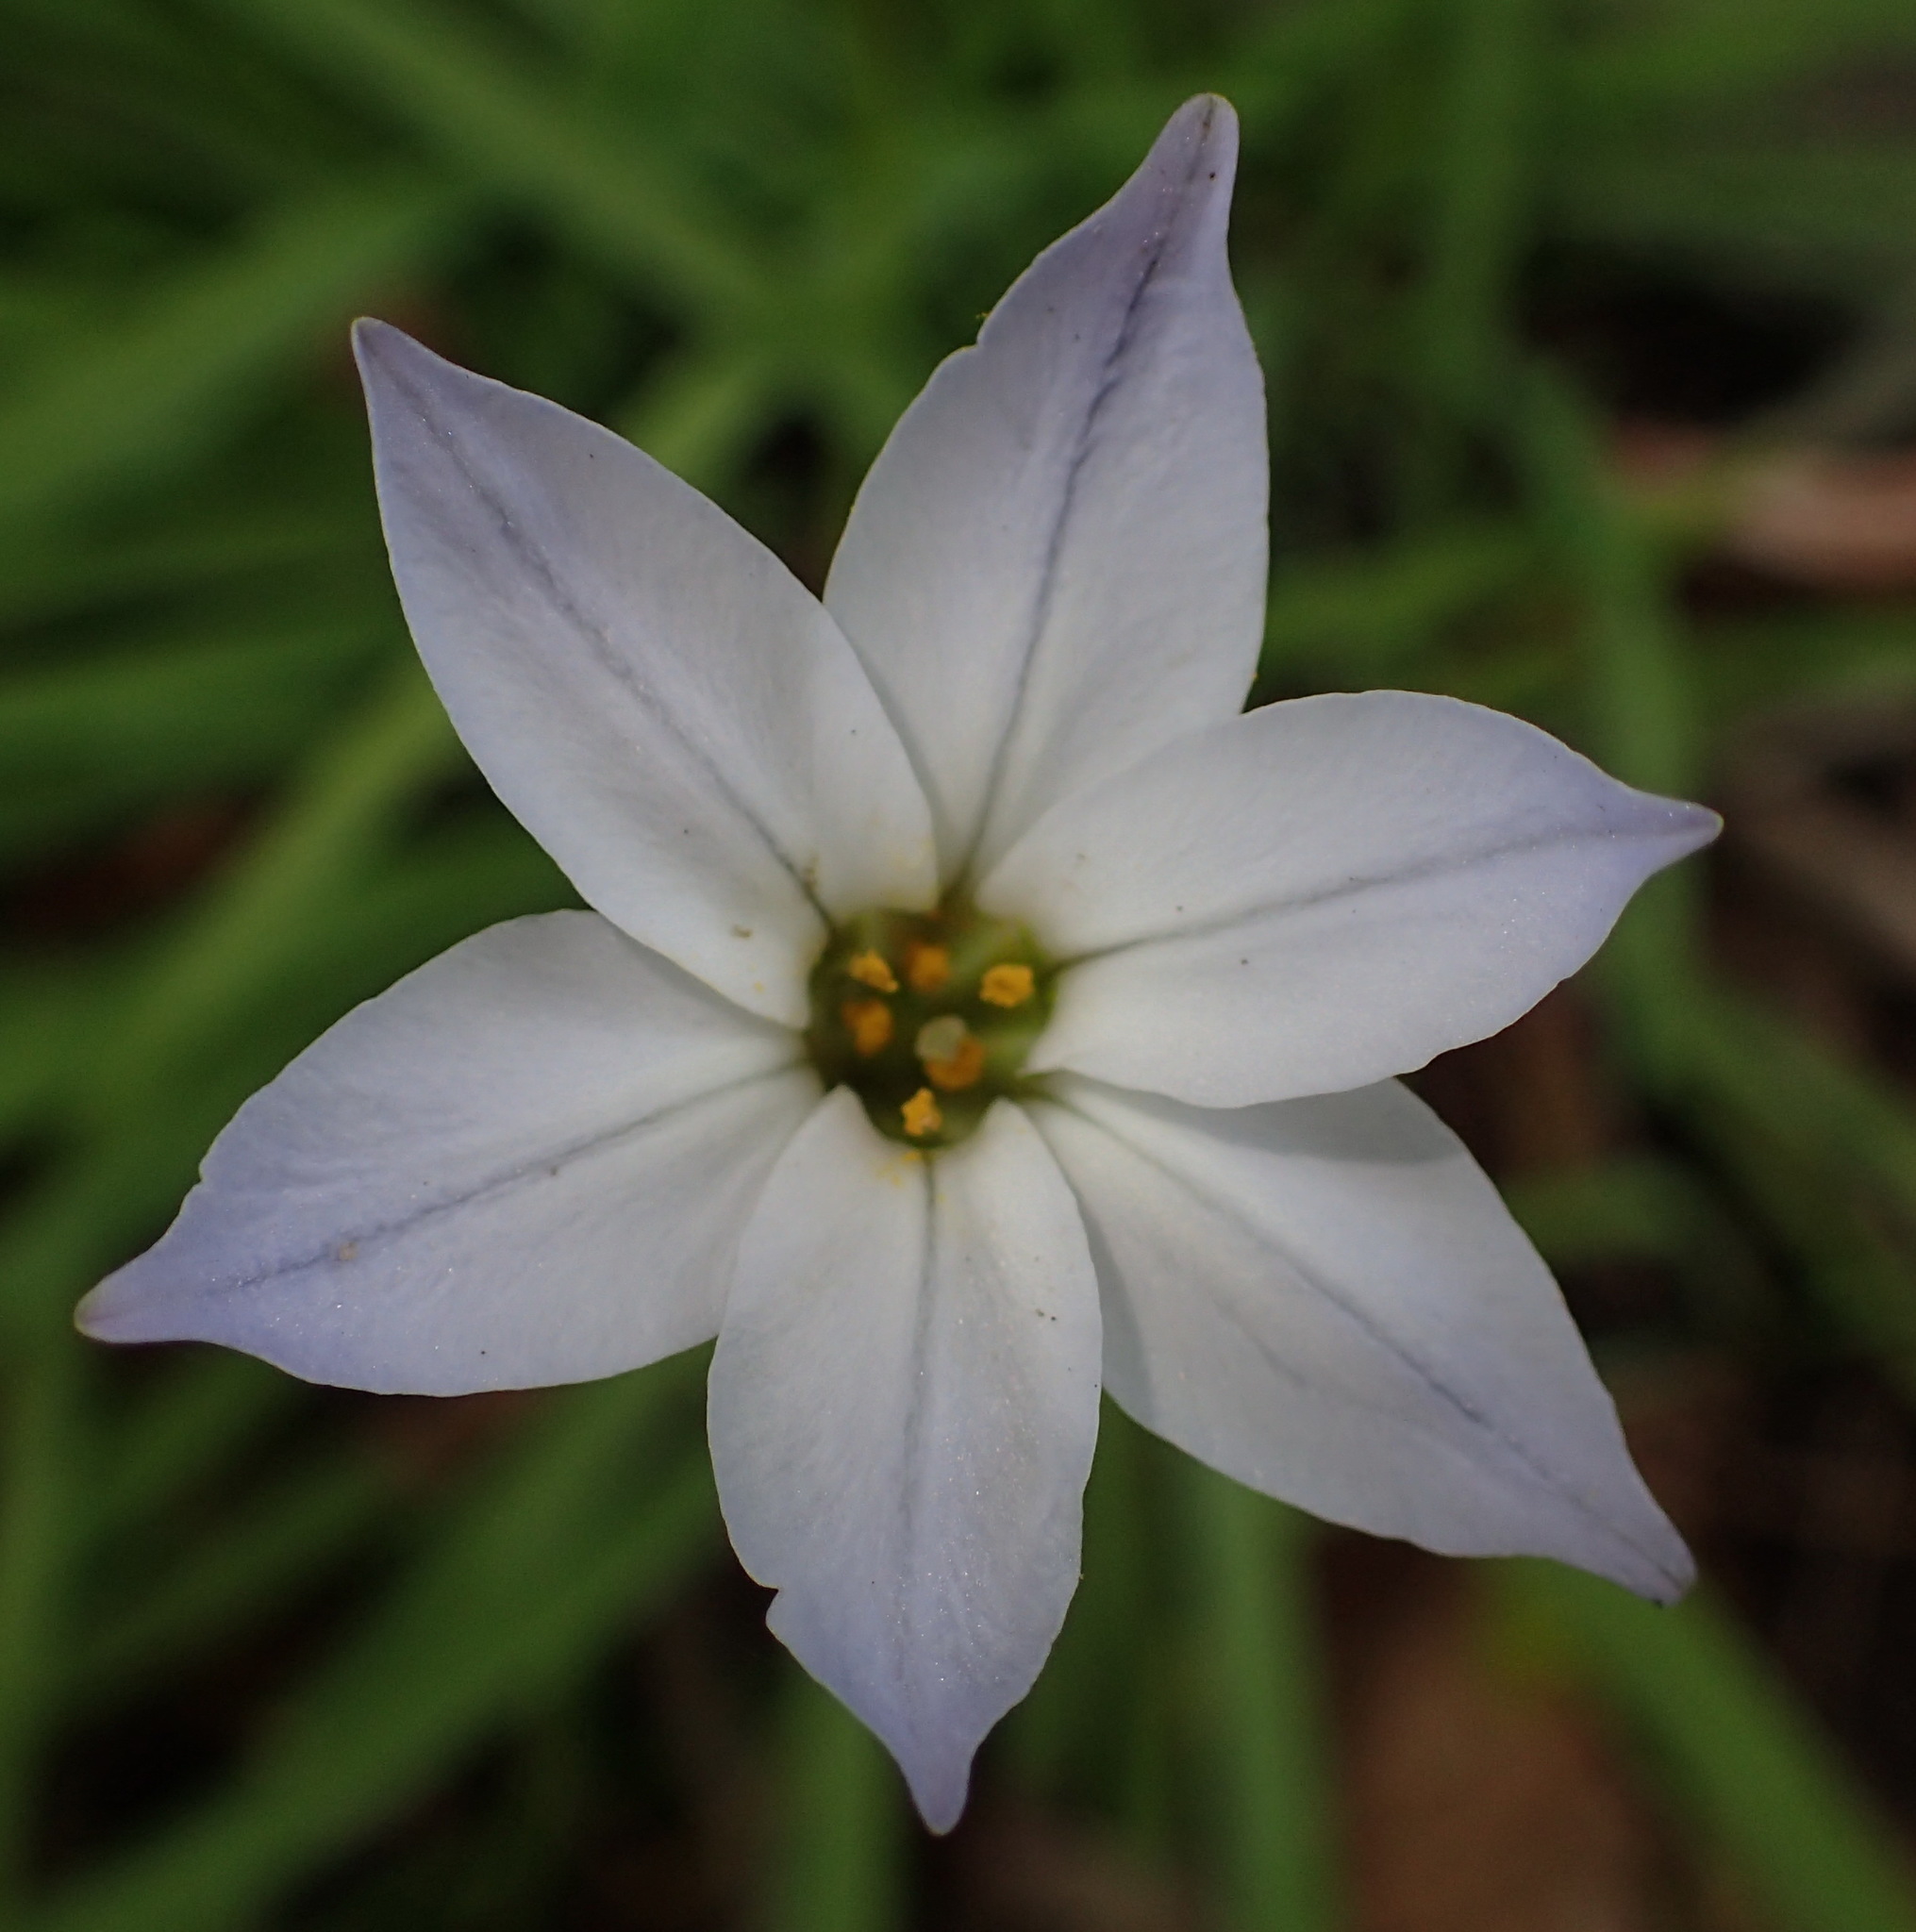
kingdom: Plantae
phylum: Tracheophyta
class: Liliopsida
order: Asparagales
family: Amaryllidaceae
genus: Ipheion
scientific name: Ipheion uniflorum
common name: Spring starflower
